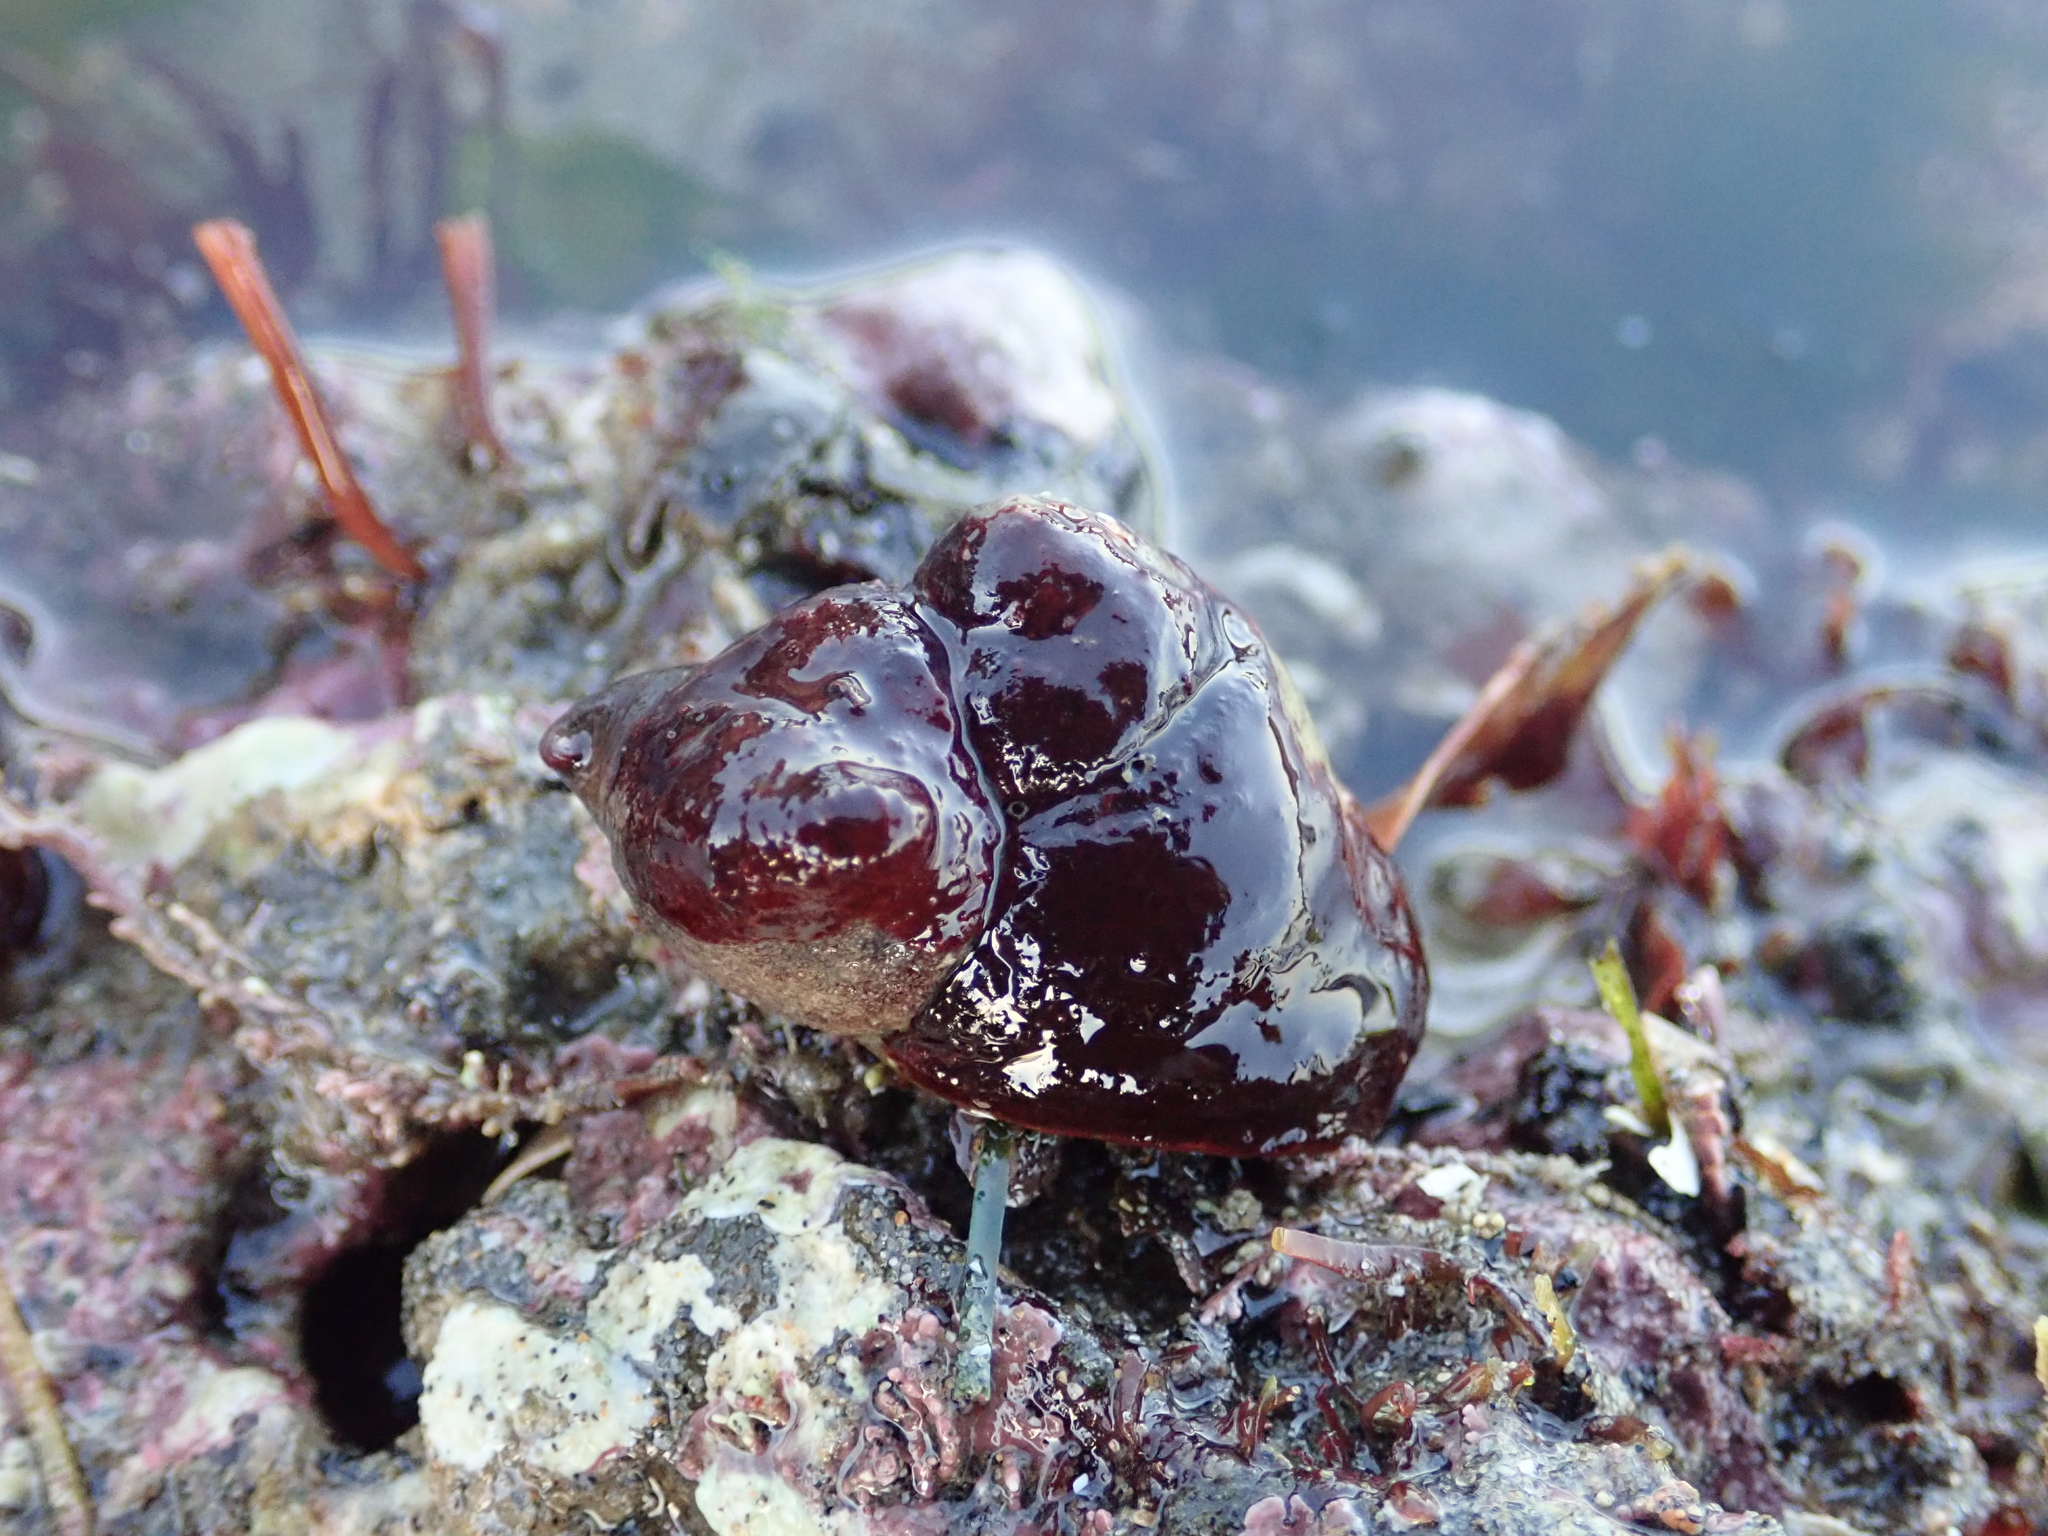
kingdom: Animalia
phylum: Mollusca
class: Gastropoda
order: Littorinimorpha
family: Calyptraeidae
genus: Crepidula
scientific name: Crepidula adunca
